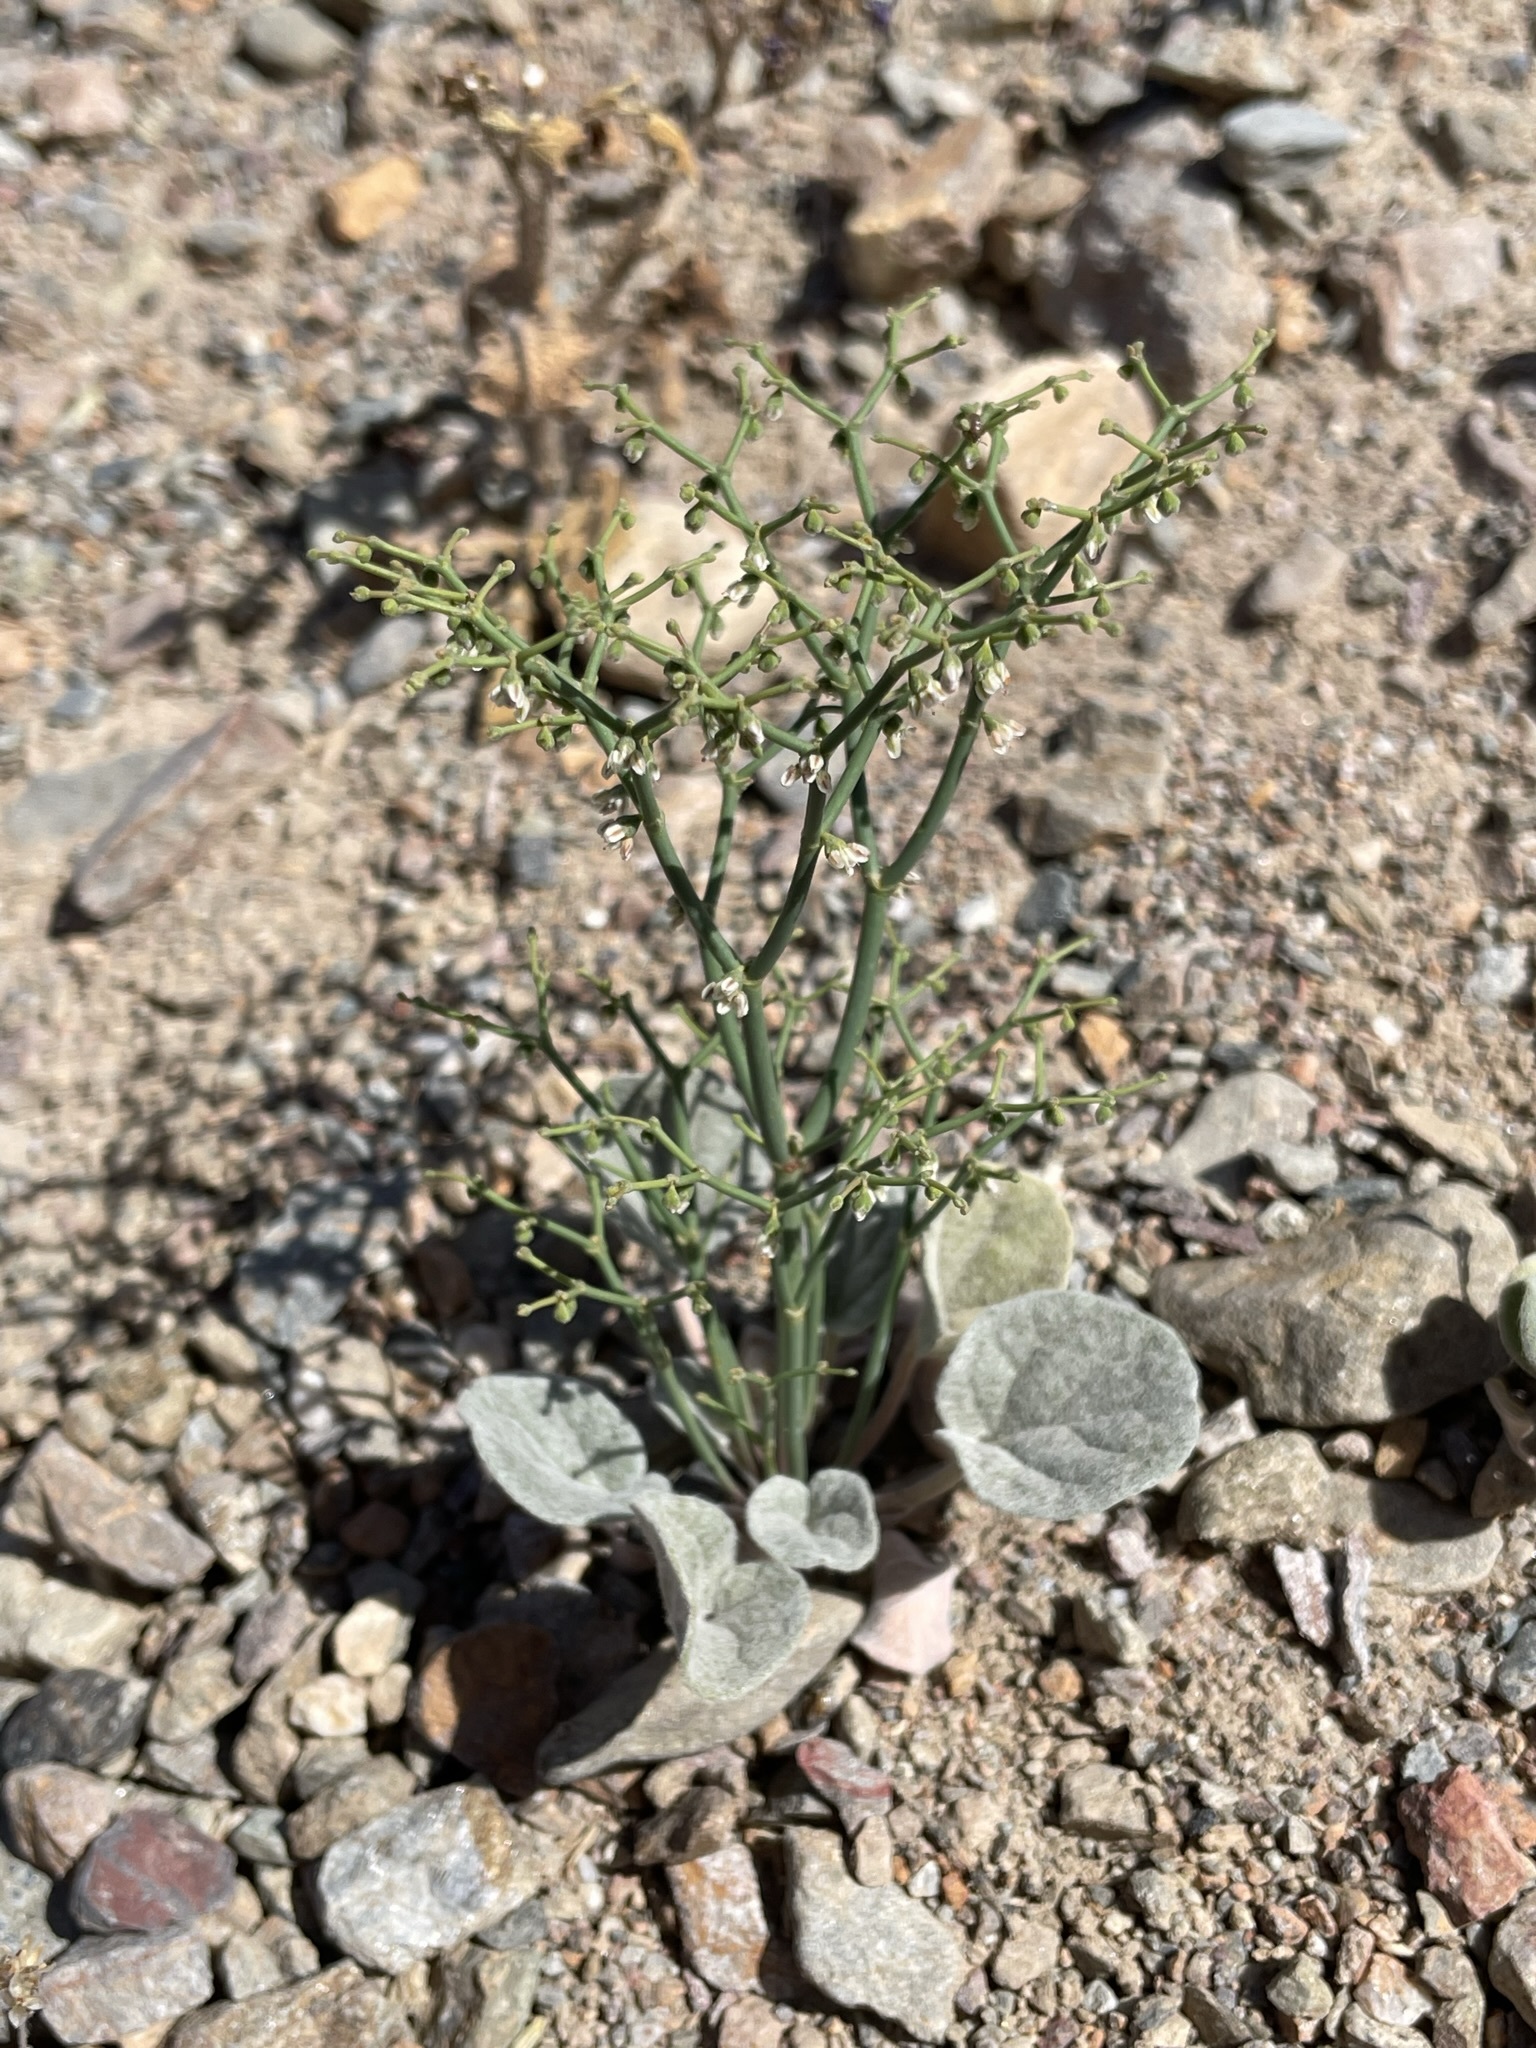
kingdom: Plantae
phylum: Tracheophyta
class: Magnoliopsida
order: Caryophyllales
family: Polygonaceae
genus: Eriogonum
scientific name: Eriogonum rixfordii
